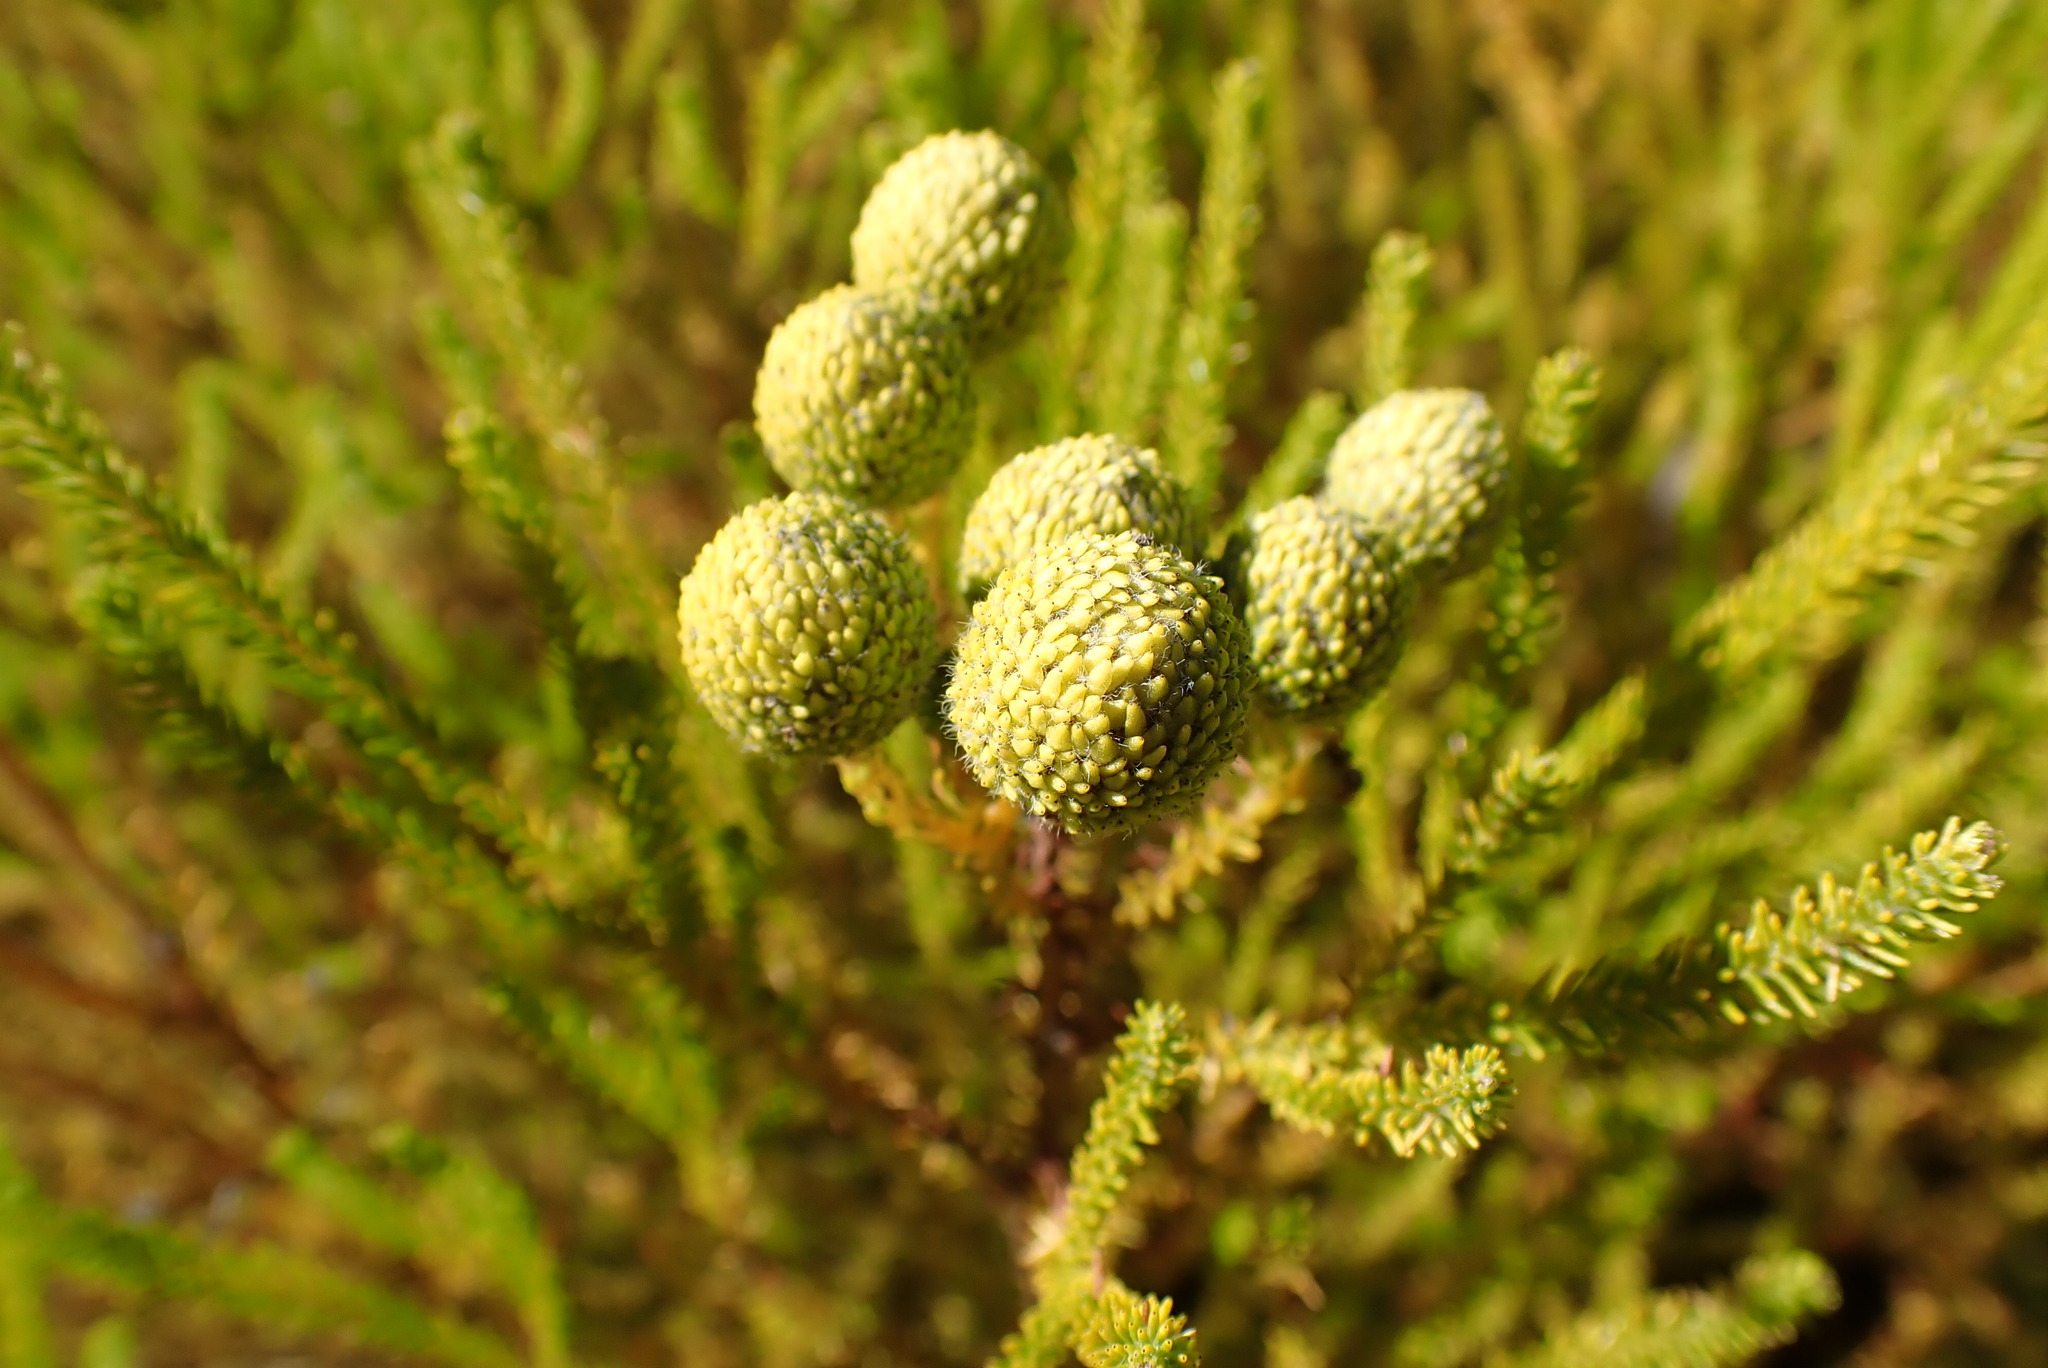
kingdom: Plantae
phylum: Tracheophyta
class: Magnoliopsida
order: Bruniales
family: Bruniaceae
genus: Berzelia
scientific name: Berzelia intermedia
